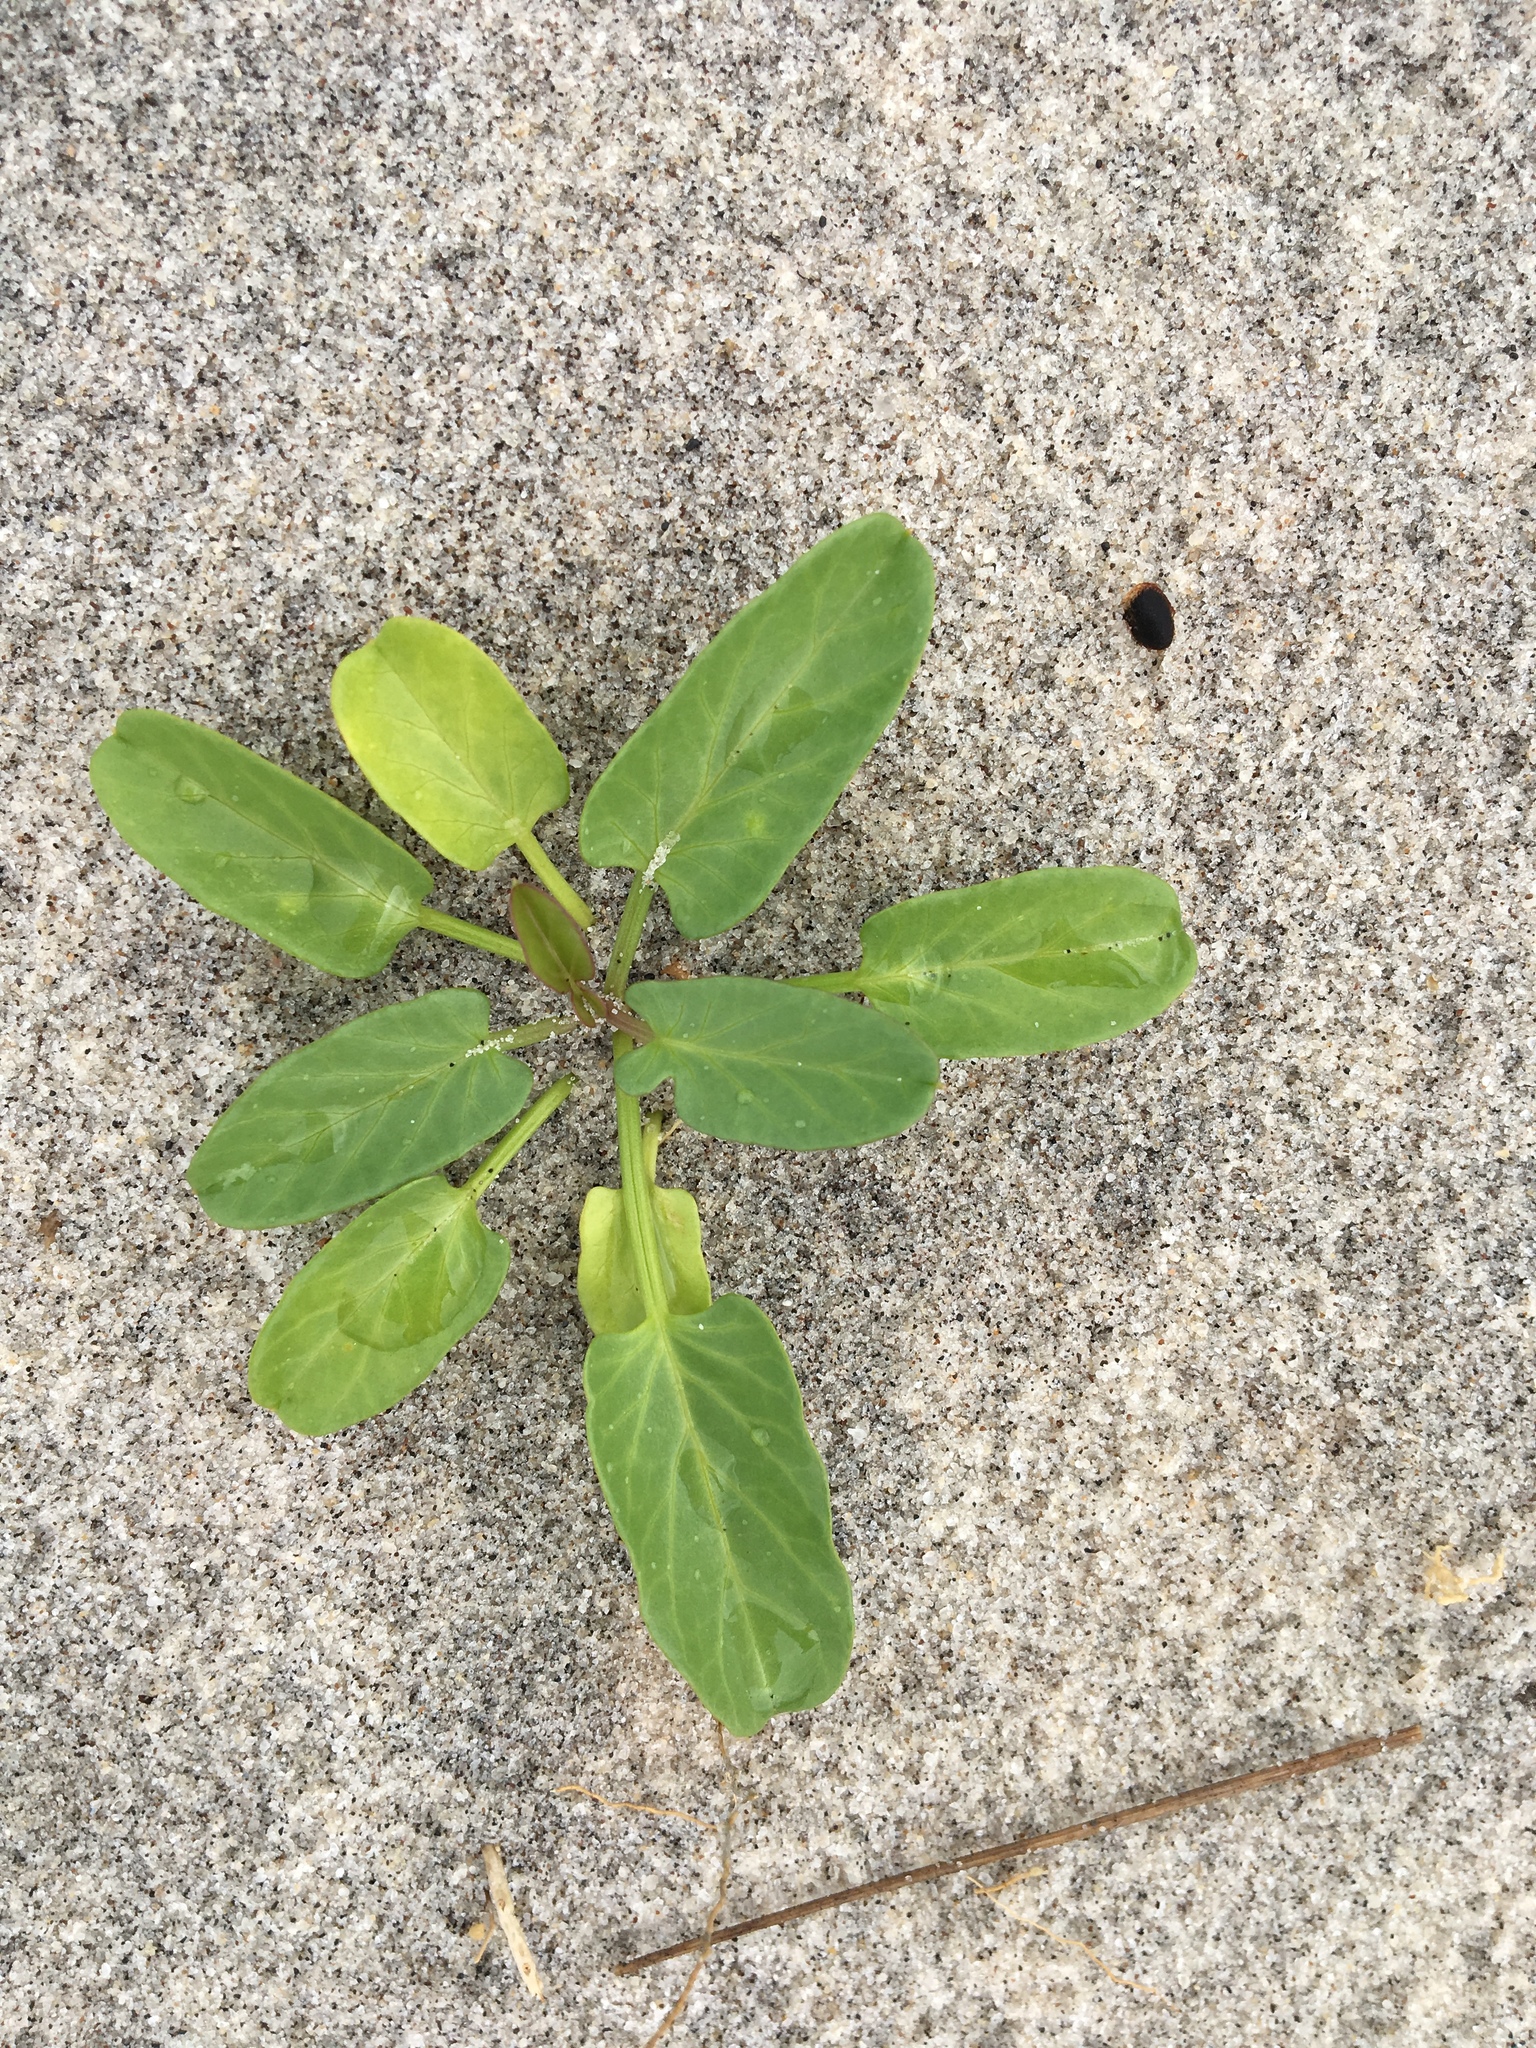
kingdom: Plantae
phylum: Tracheophyta
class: Magnoliopsida
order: Solanales
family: Convolvulaceae
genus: Ipomoea
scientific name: Ipomoea imperati
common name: Fiddle-leaf morning-glory
